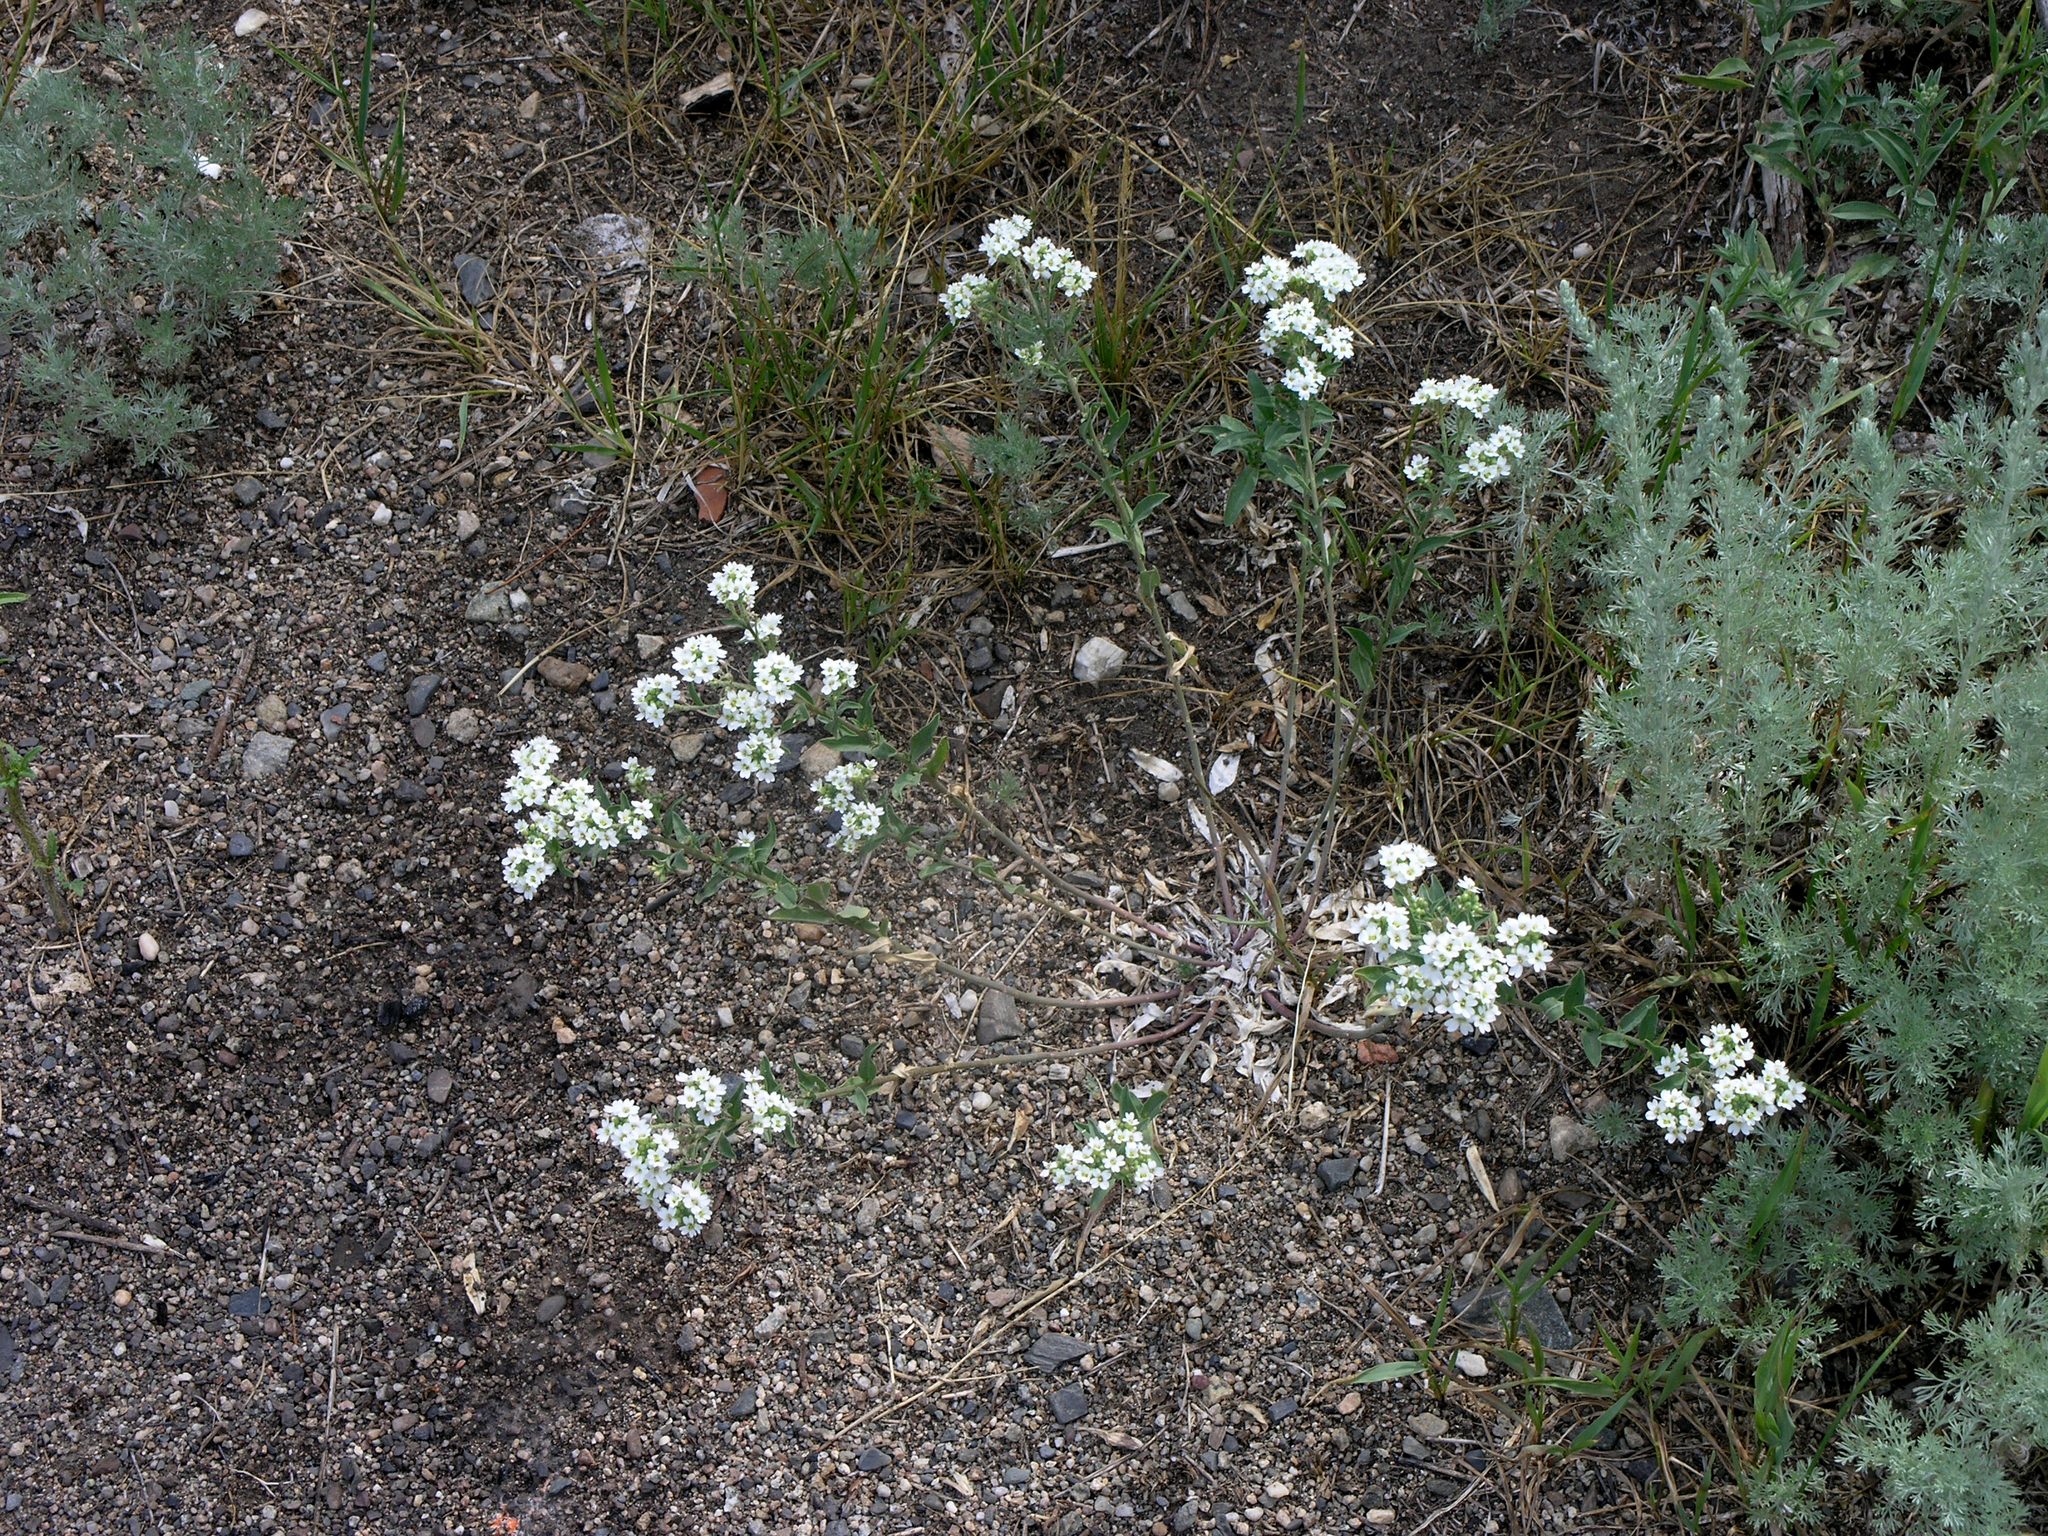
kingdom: Plantae
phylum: Tracheophyta
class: Magnoliopsida
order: Brassicales
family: Brassicaceae
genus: Berteroa
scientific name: Berteroa incana
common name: Hoary alison
